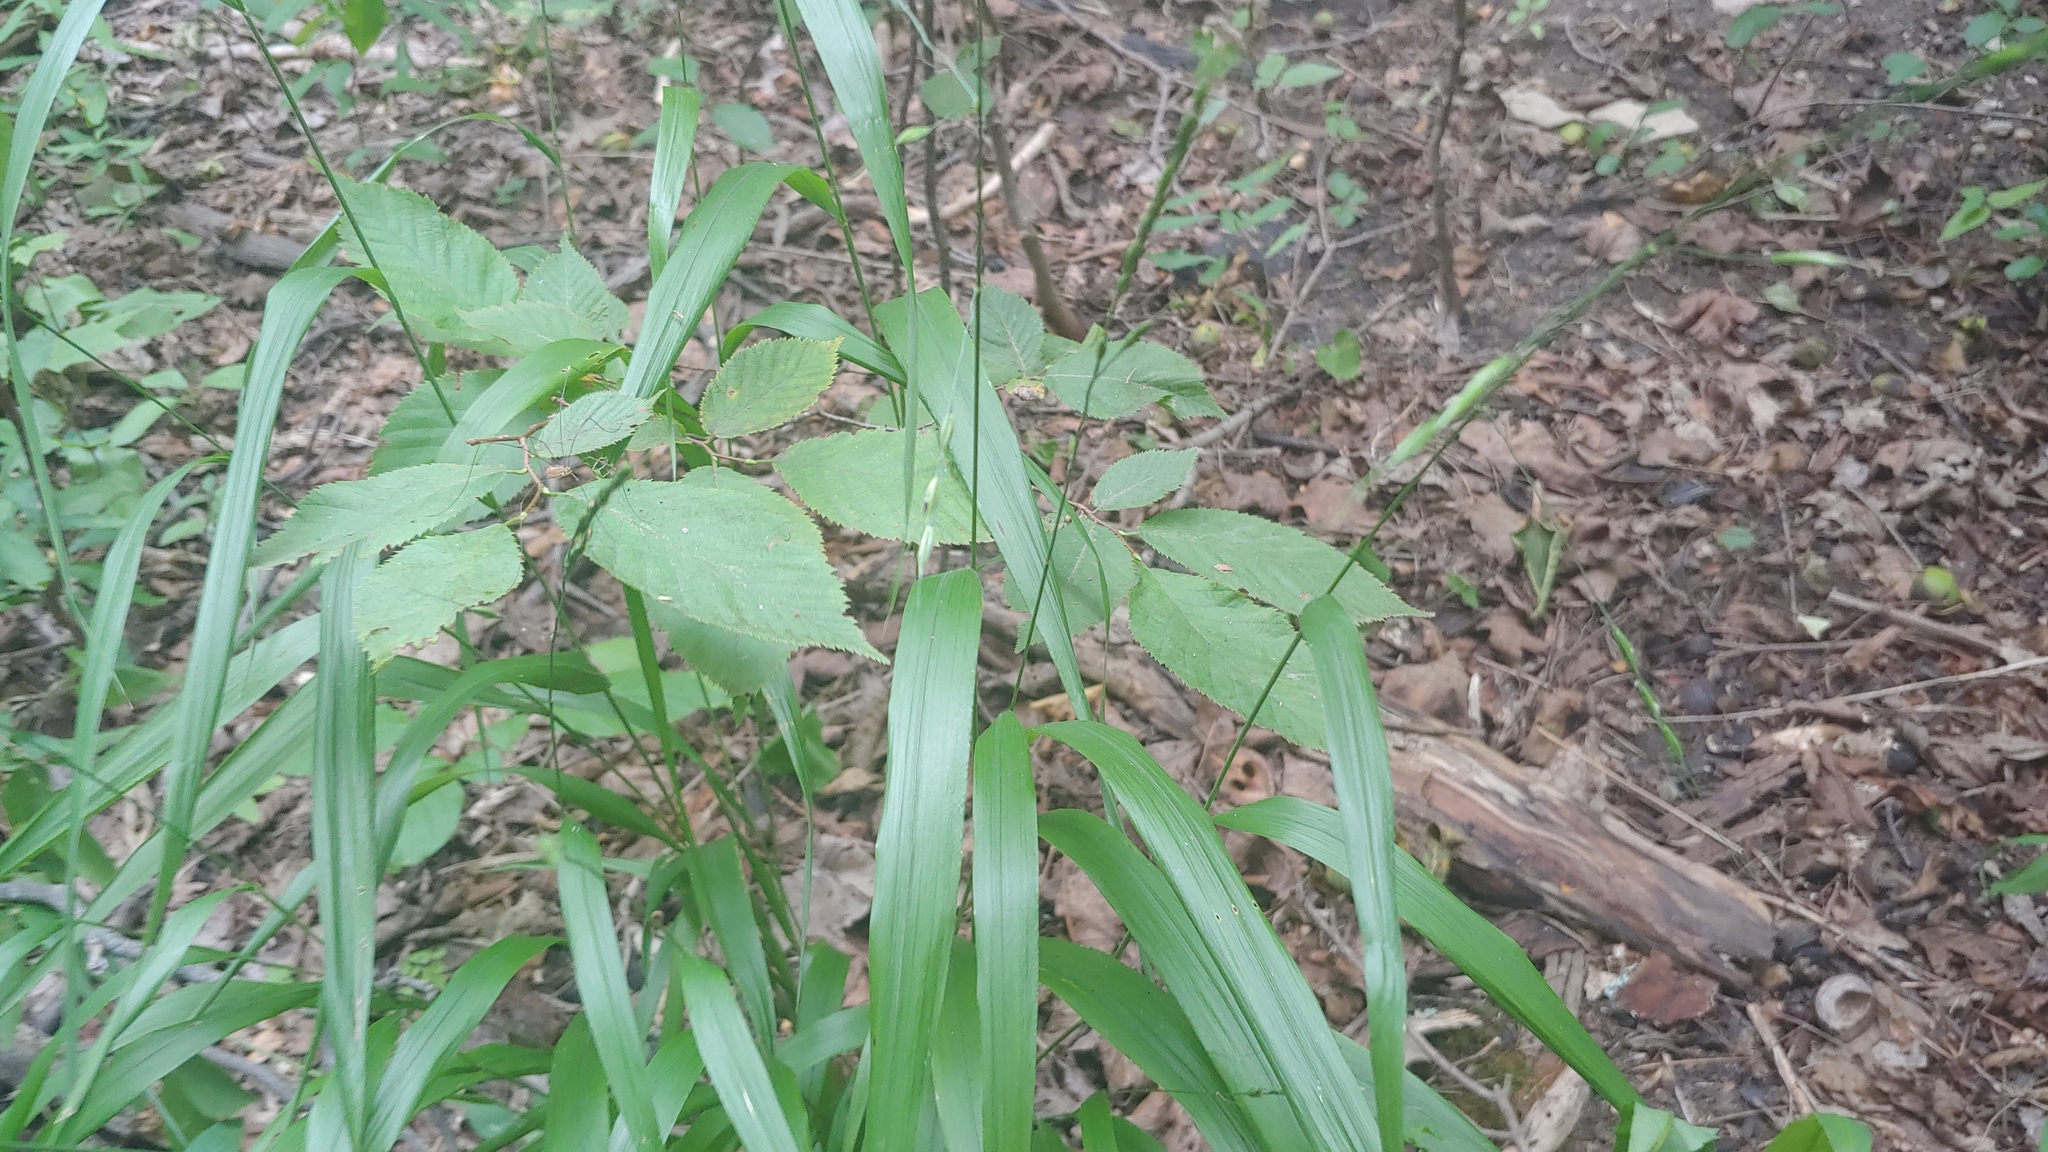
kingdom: Plantae
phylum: Tracheophyta
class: Liliopsida
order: Poales
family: Poaceae
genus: Patis
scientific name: Patis racemosa
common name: Black-fruited mountain rice
